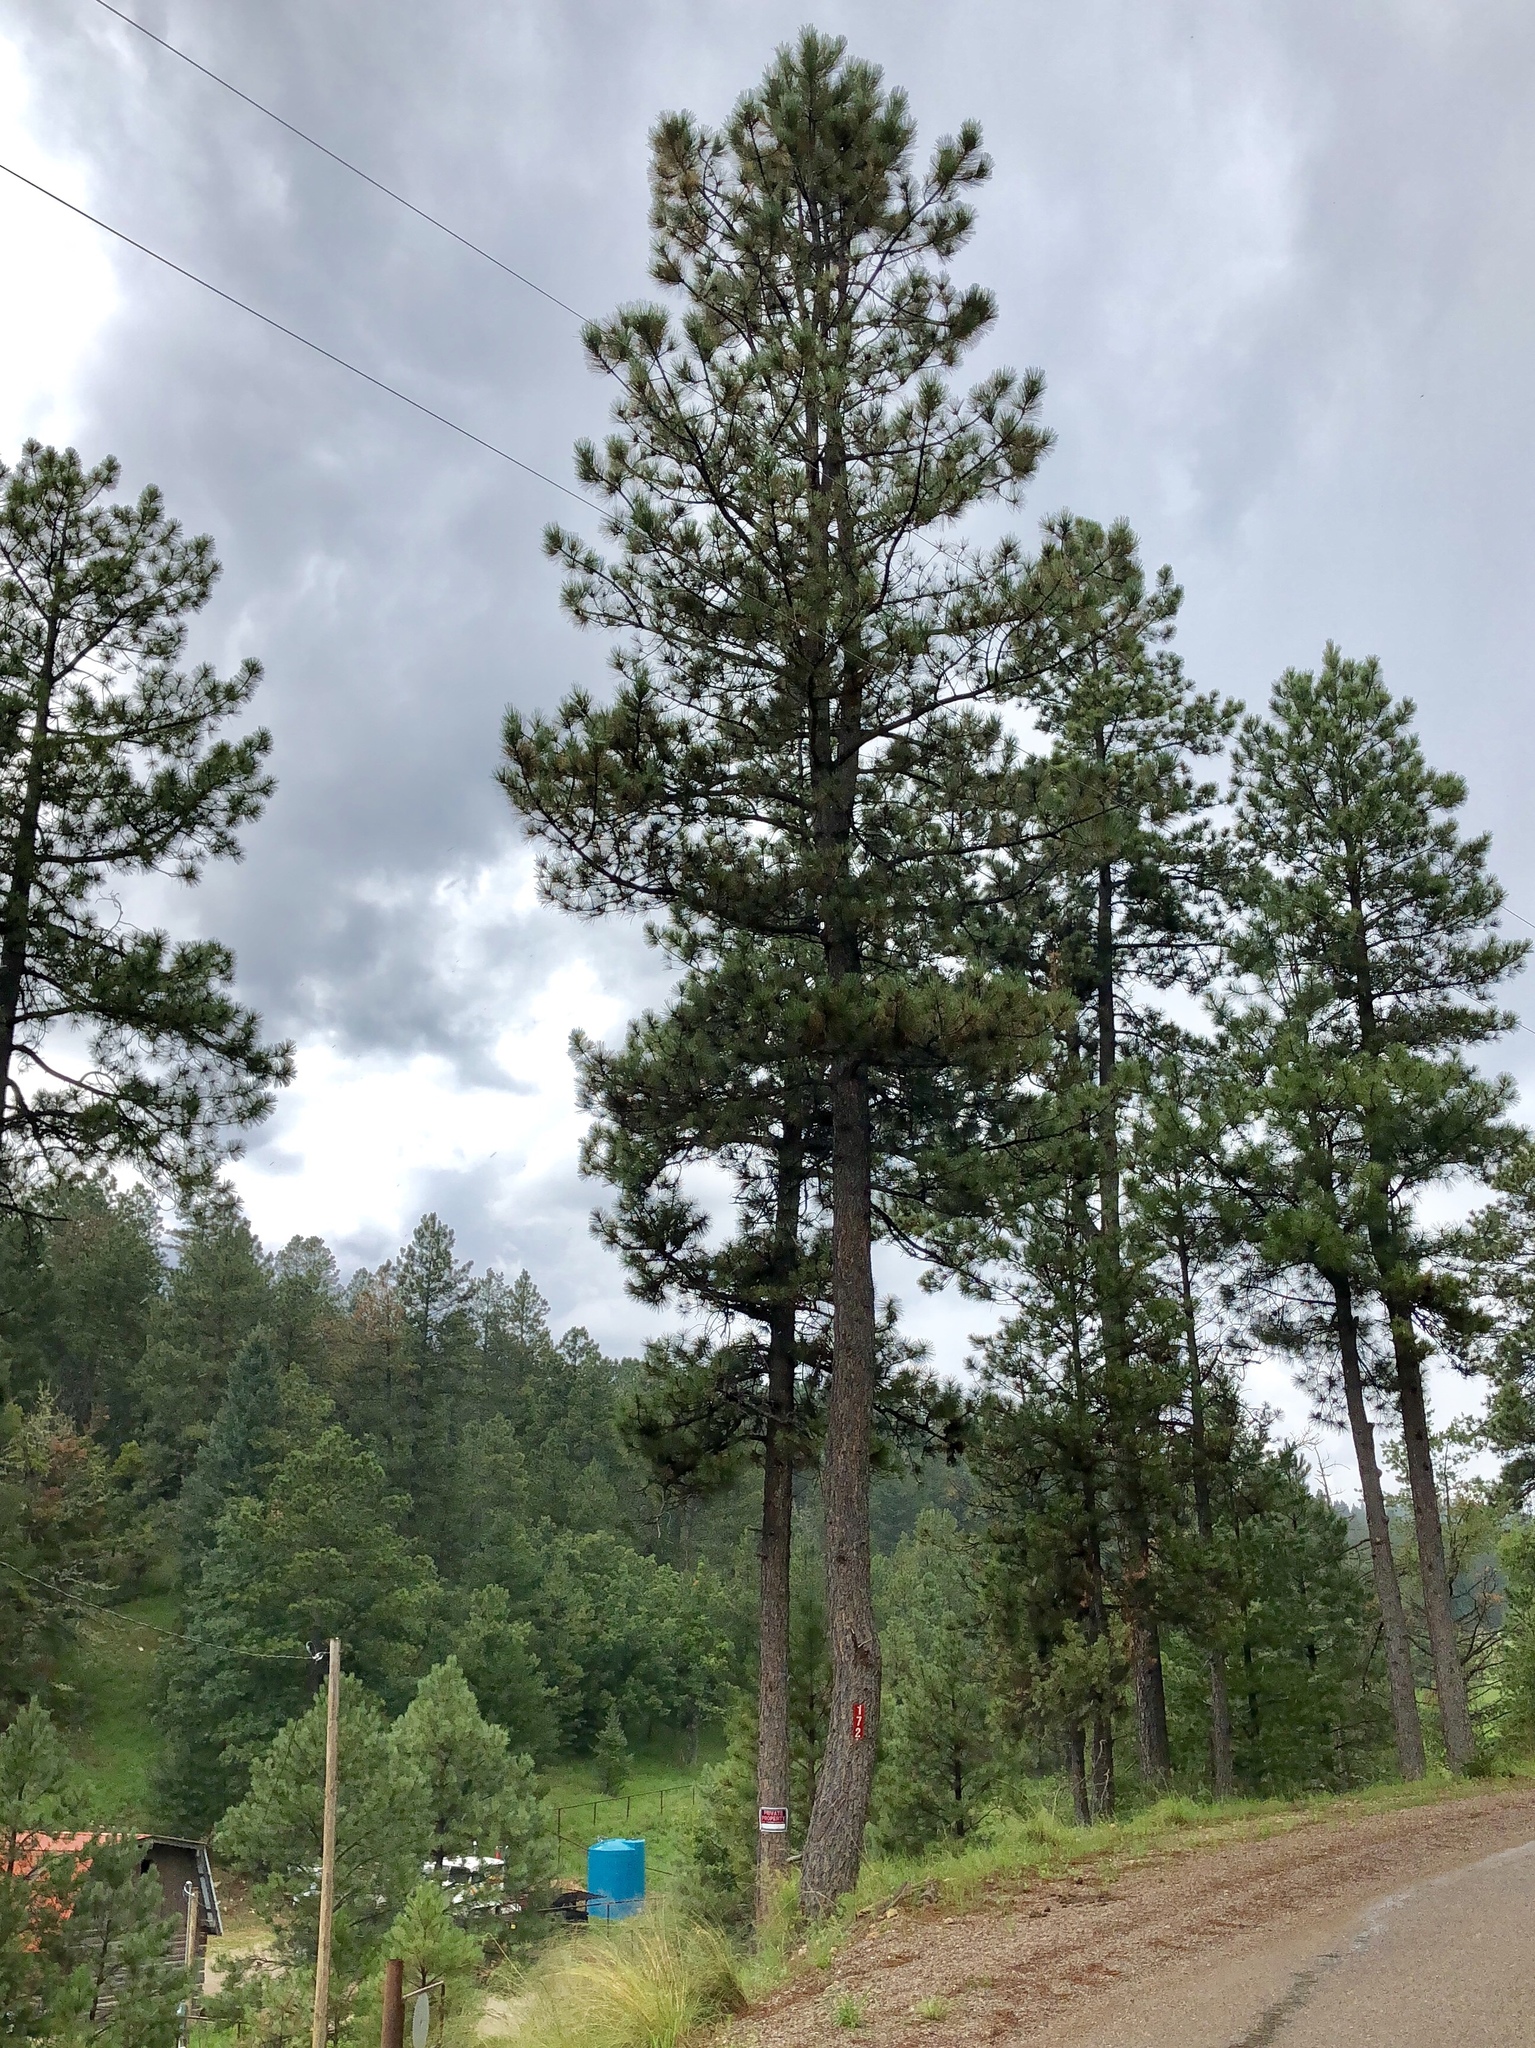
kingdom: Plantae
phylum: Tracheophyta
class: Pinopsida
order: Pinales
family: Pinaceae
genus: Pinus
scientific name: Pinus ponderosa
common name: Western yellow-pine
